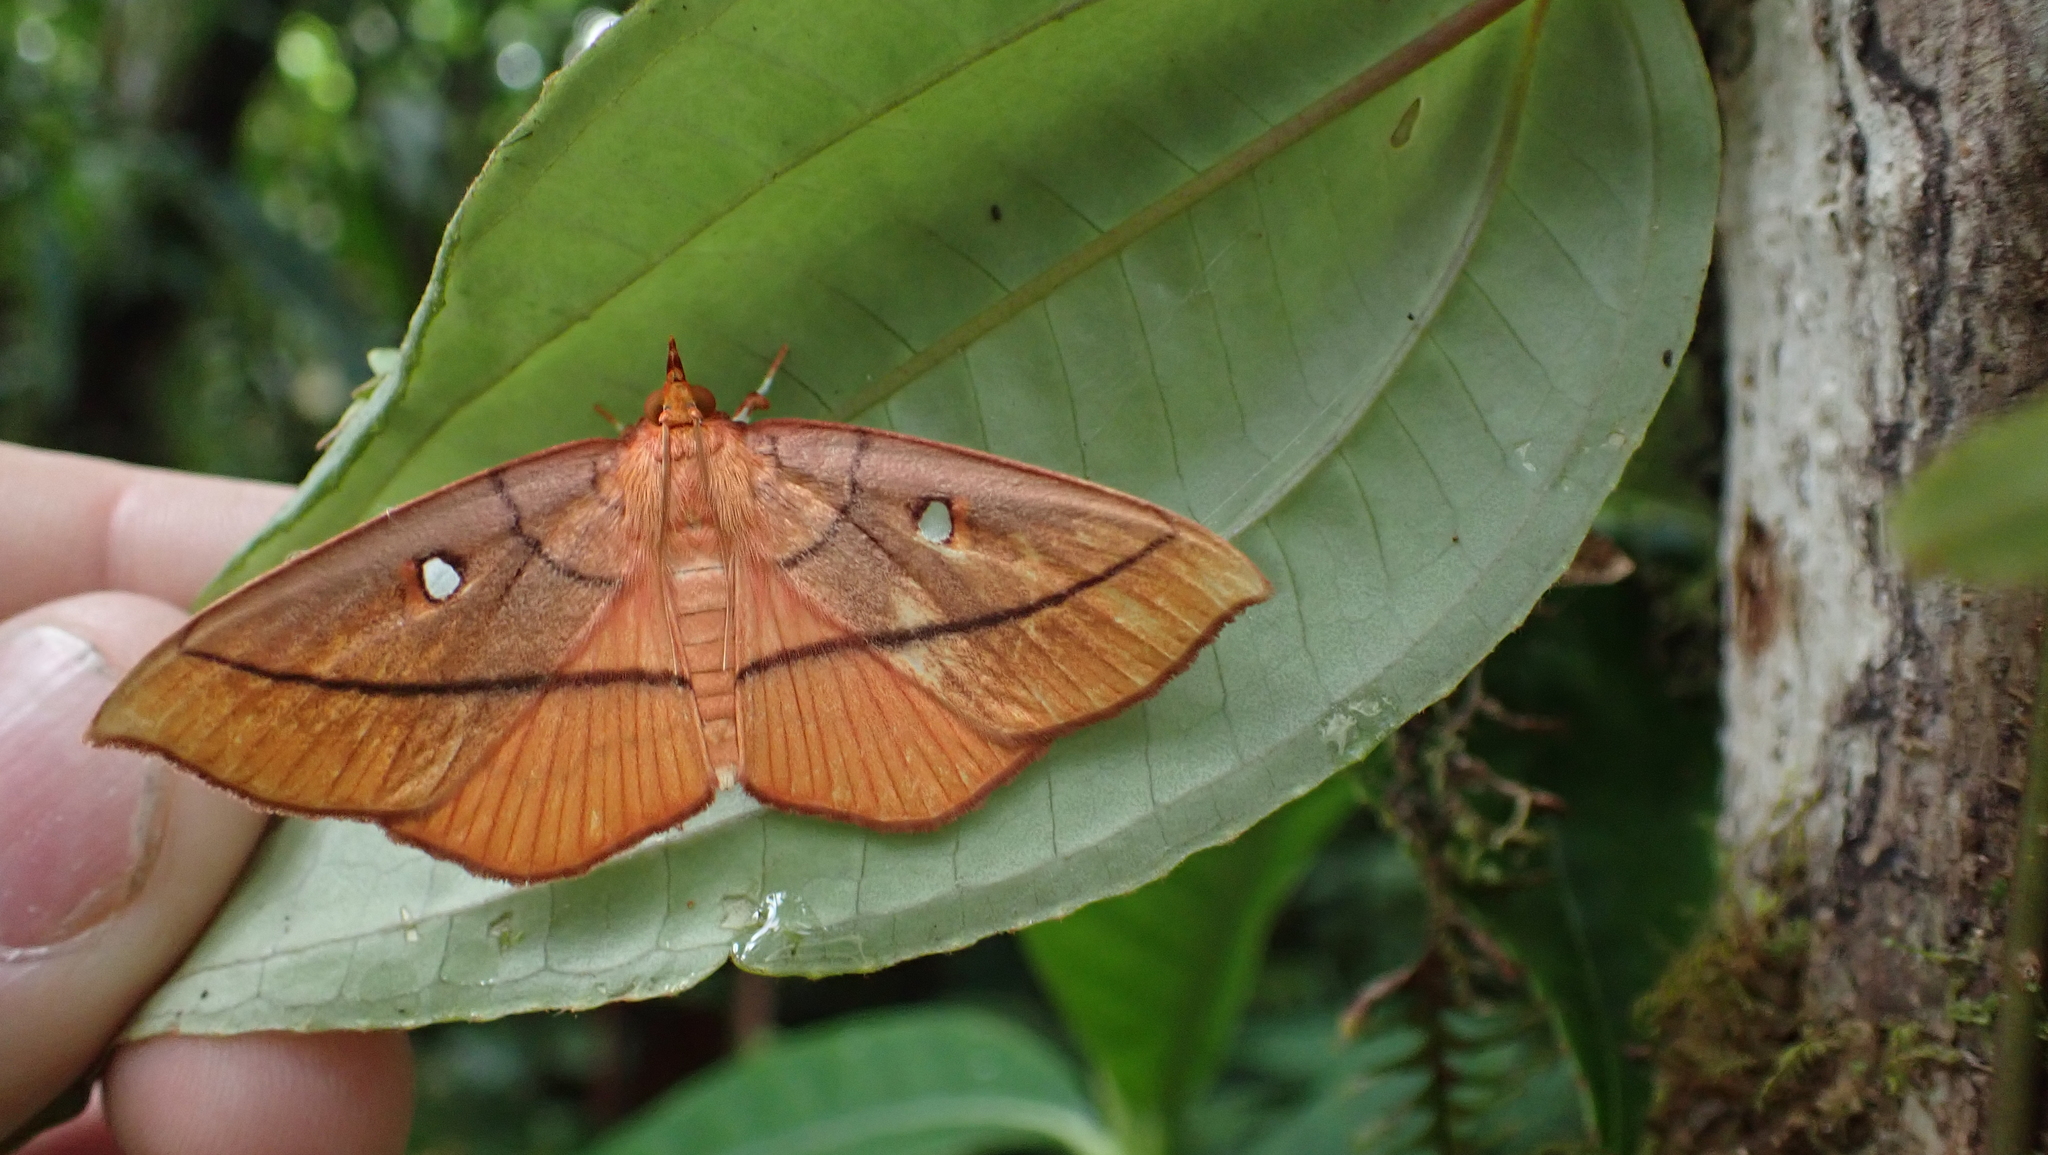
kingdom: Animalia
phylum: Arthropoda
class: Insecta
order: Lepidoptera
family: Crambidae
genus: Midila
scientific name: Midila daphne
